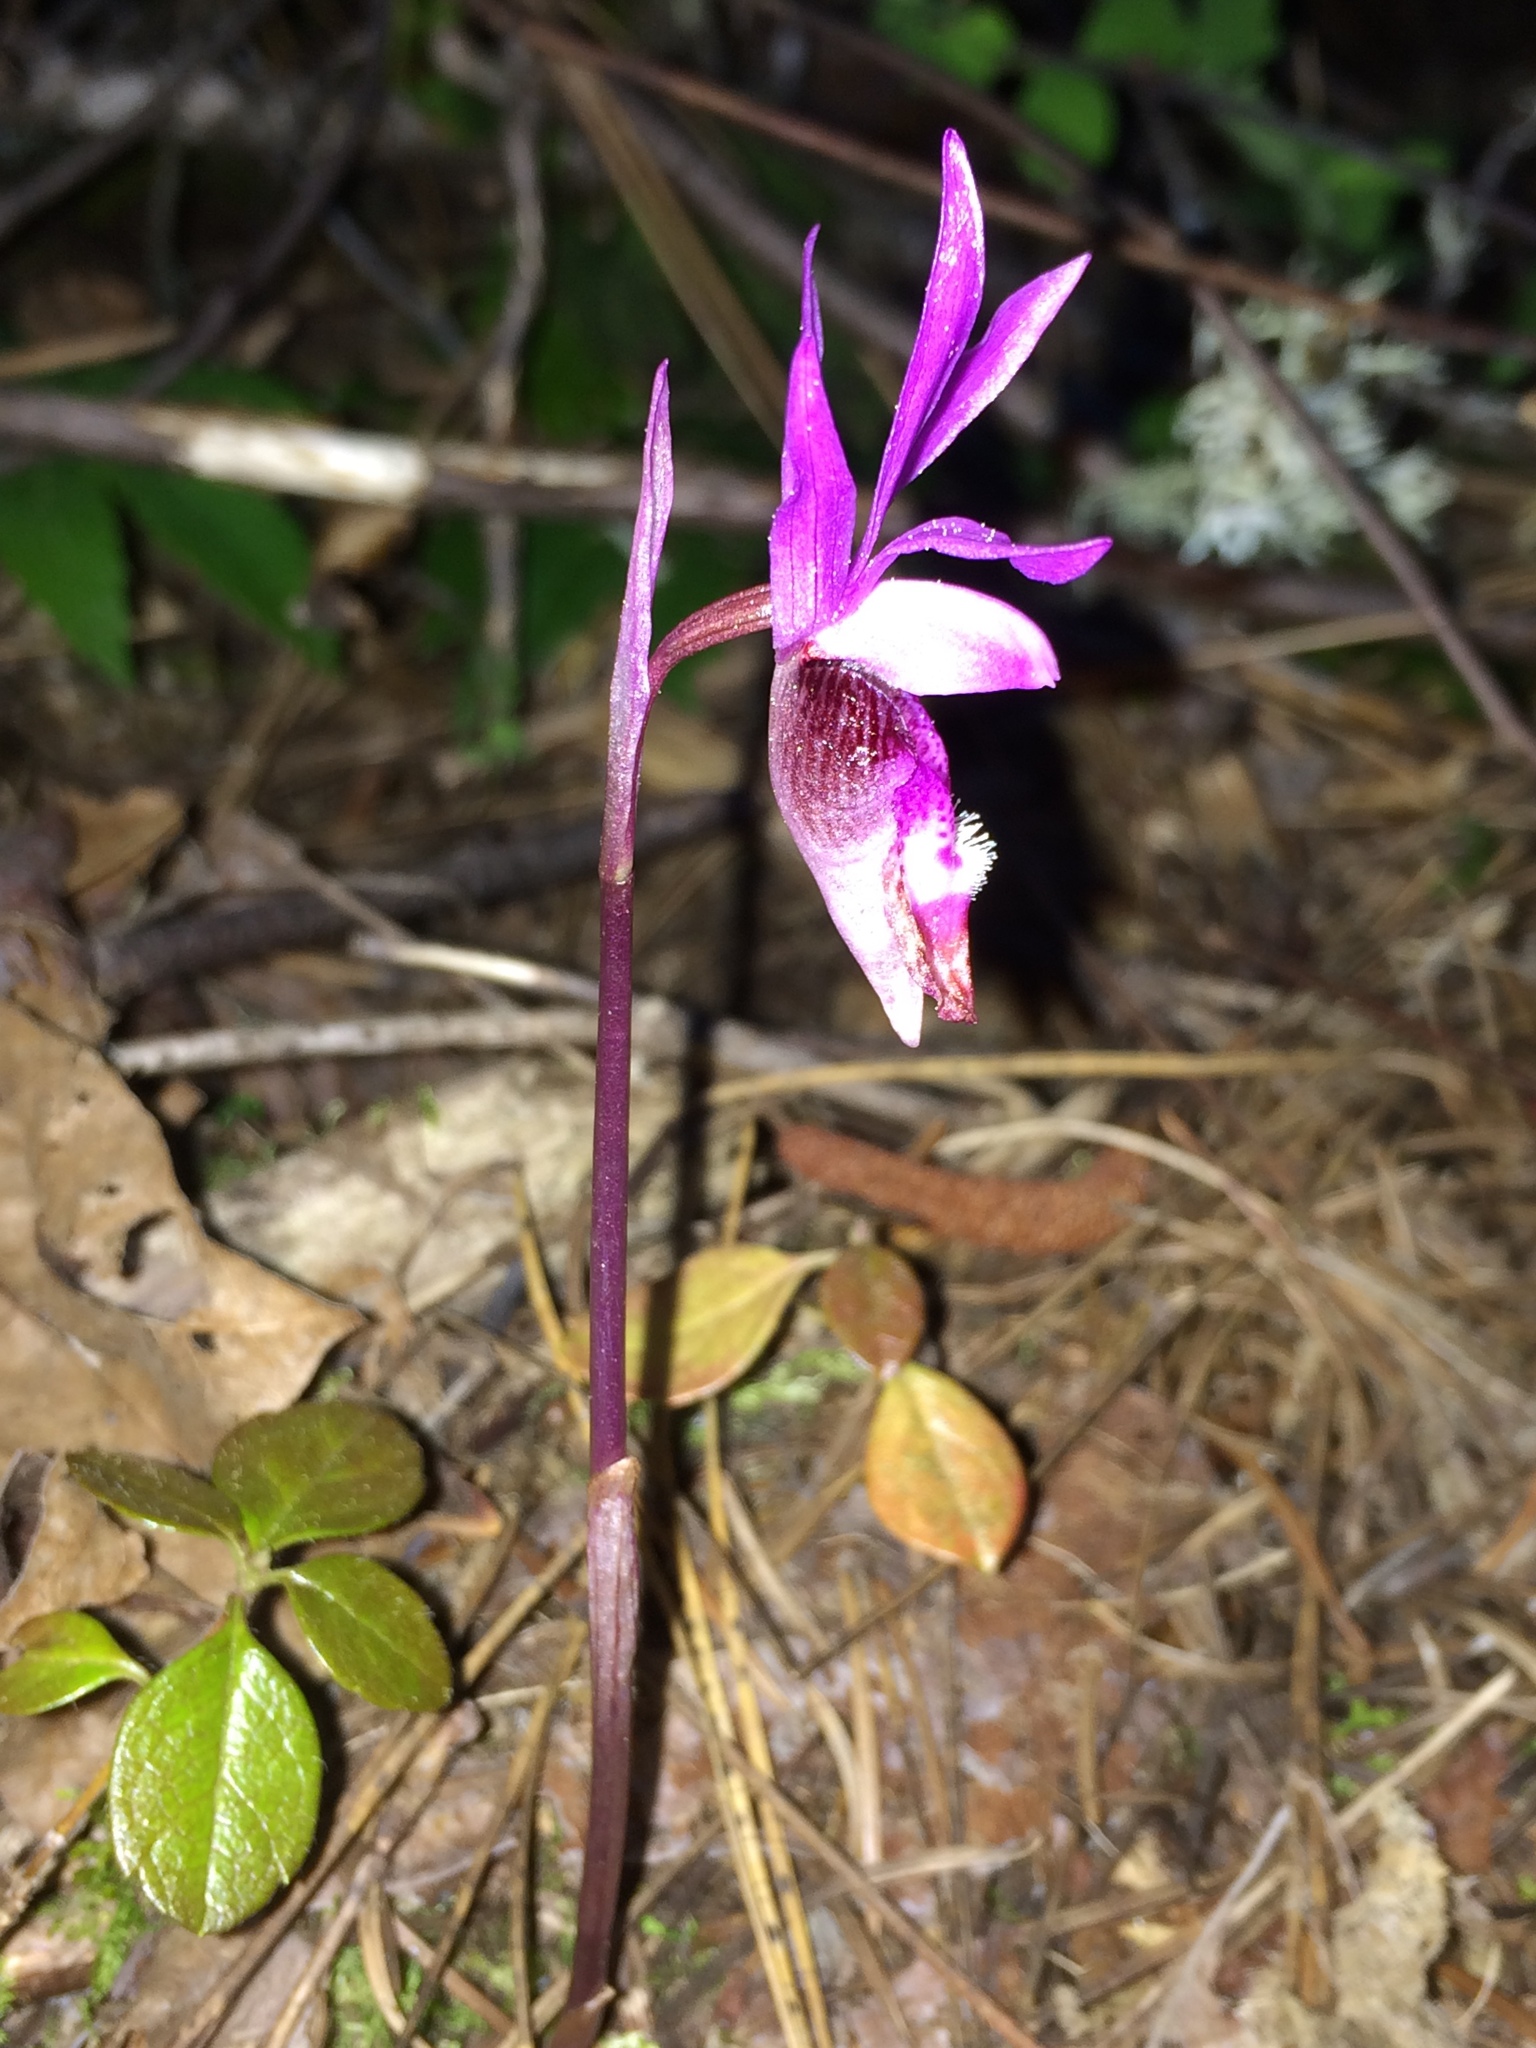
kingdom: Plantae
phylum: Tracheophyta
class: Liliopsida
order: Asparagales
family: Orchidaceae
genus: Calypso
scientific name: Calypso bulbosa
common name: Calypso
